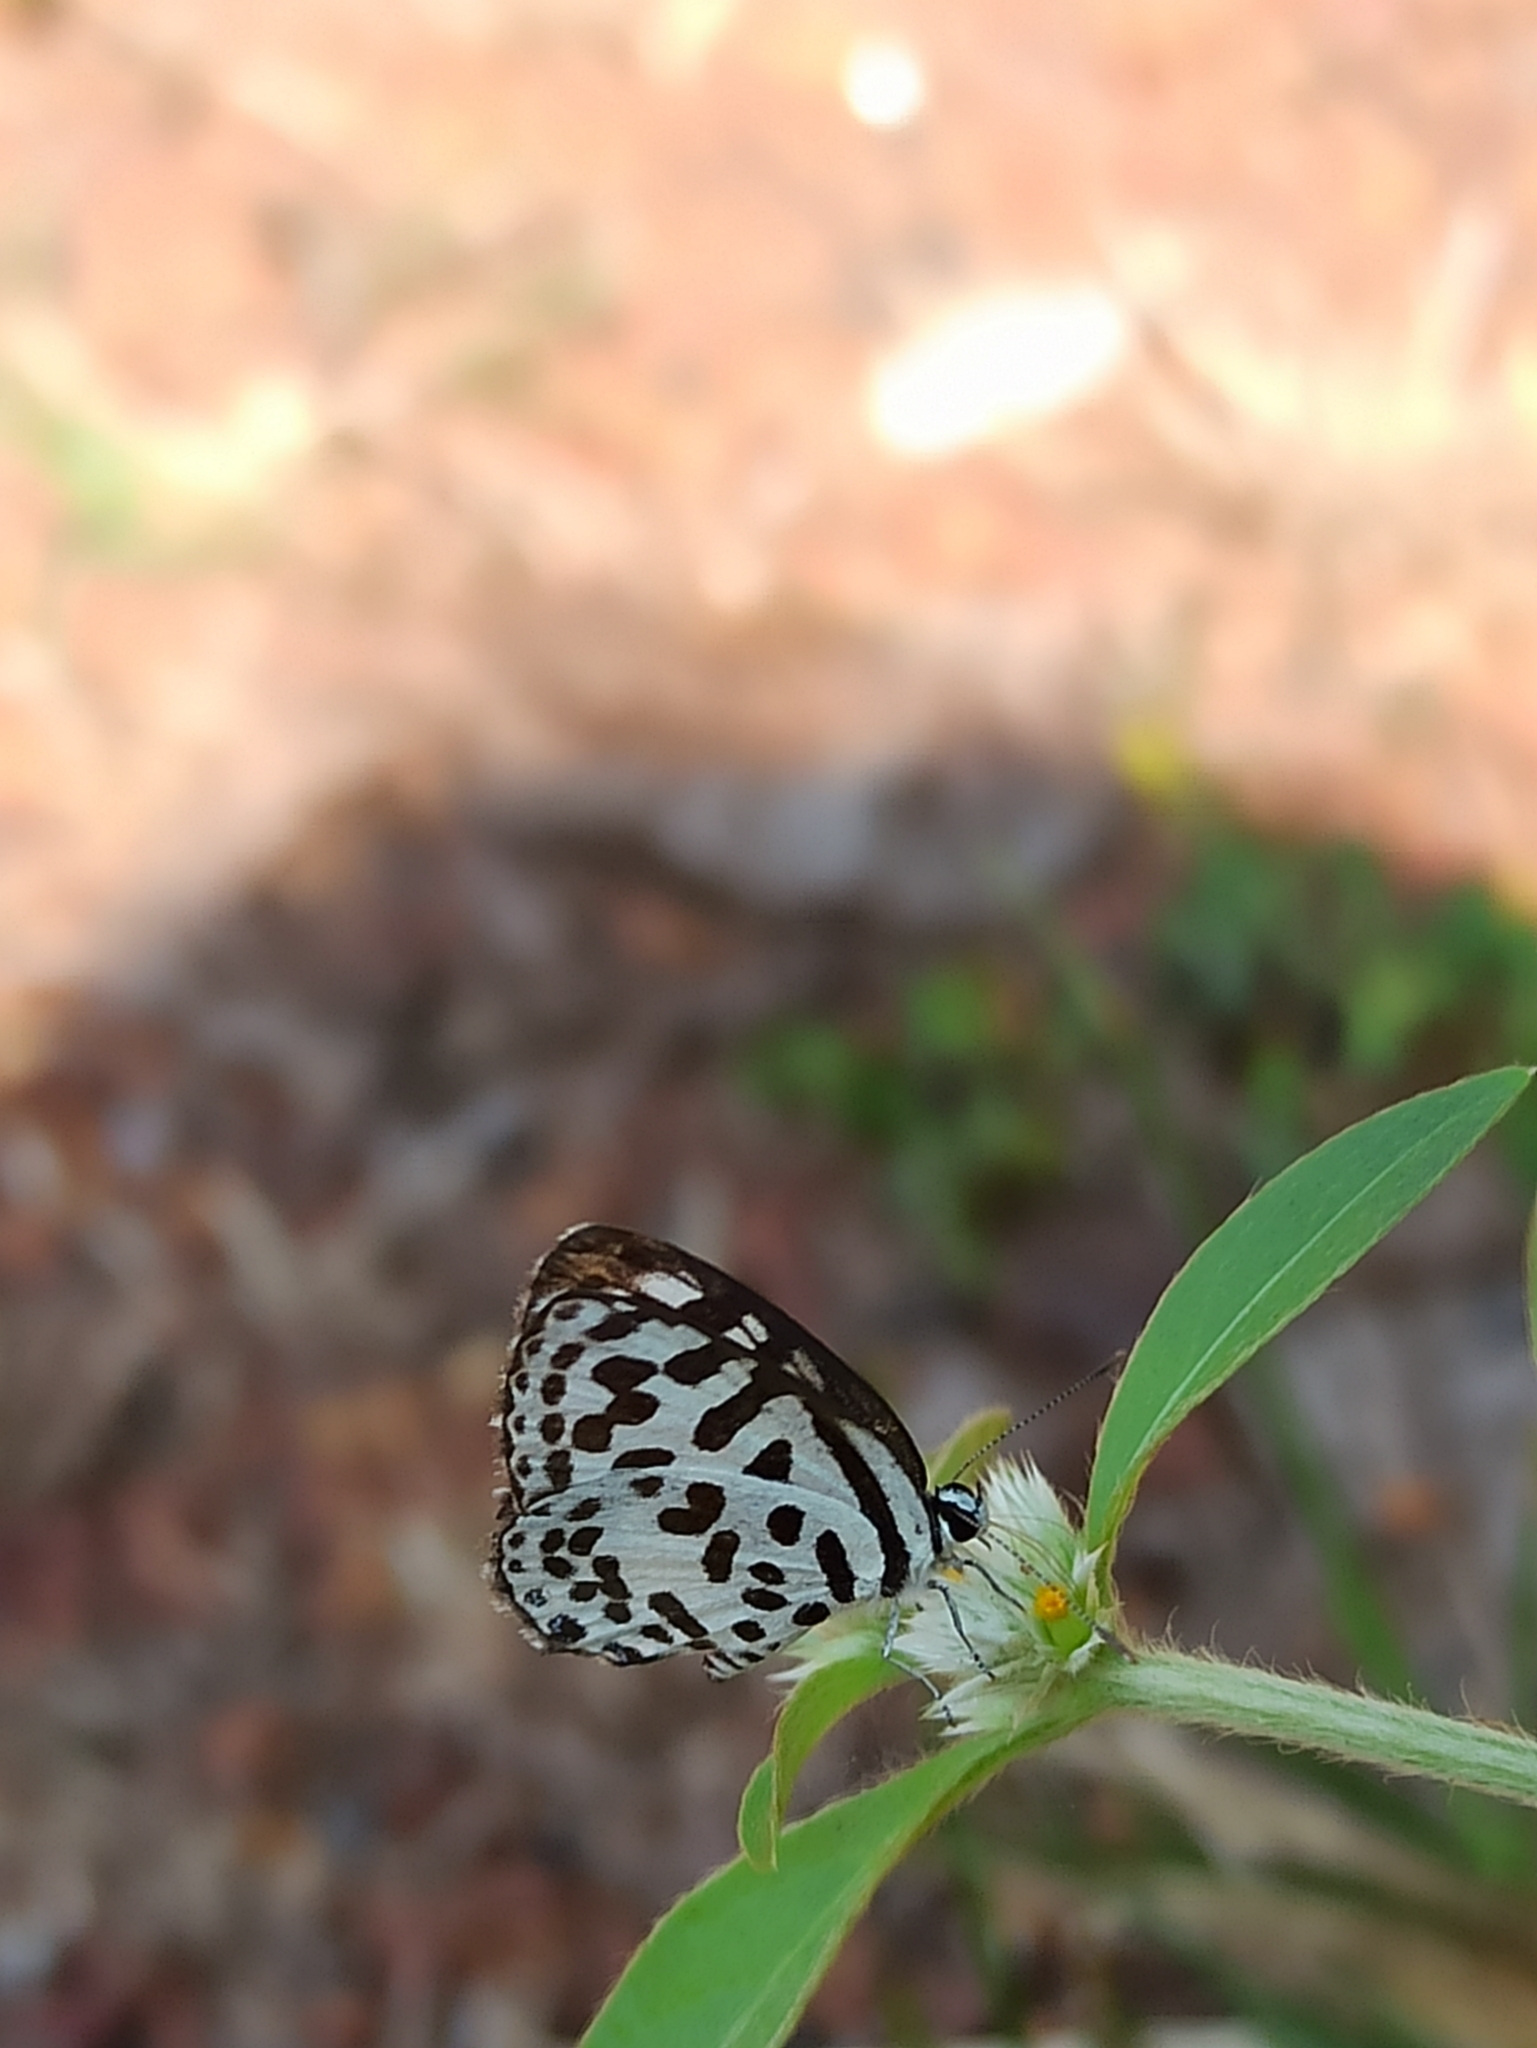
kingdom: Animalia
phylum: Arthropoda
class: Insecta
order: Lepidoptera
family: Lycaenidae
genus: Castalius
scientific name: Castalius rosimon
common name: Common pierrot
